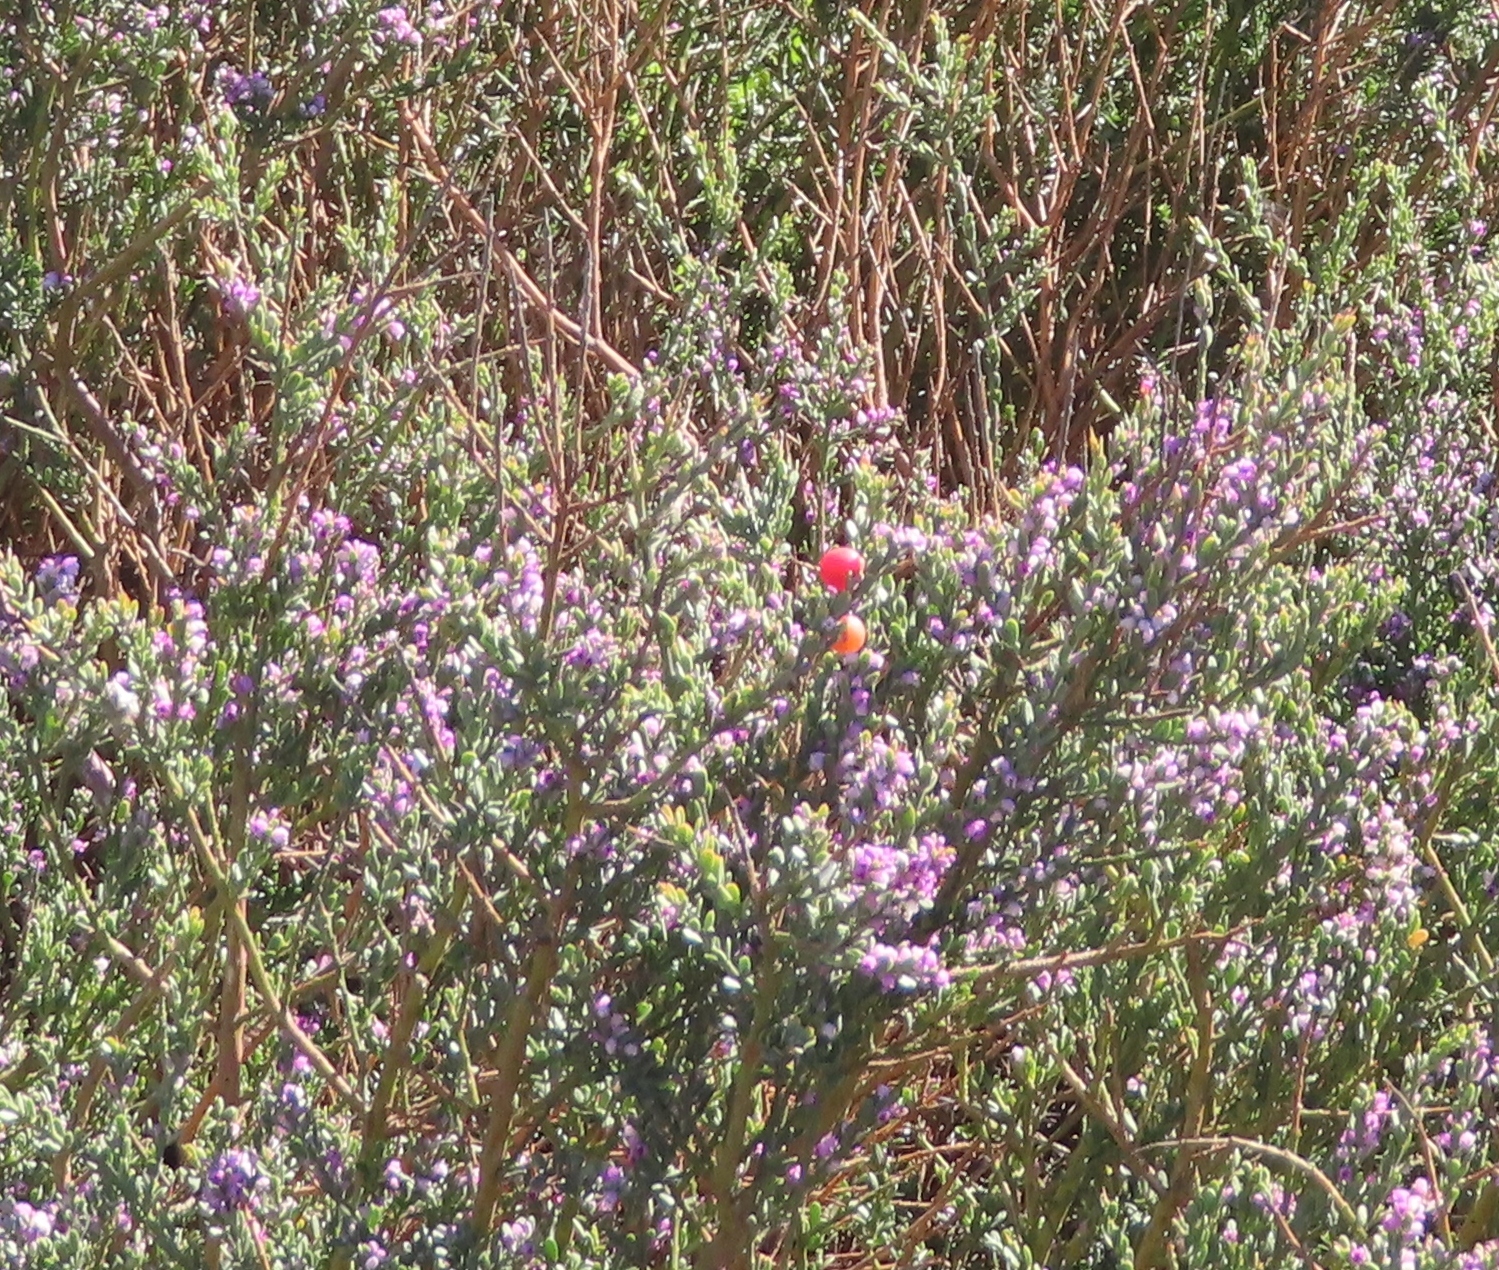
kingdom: Plantae
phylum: Tracheophyta
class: Magnoliopsida
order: Fabales
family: Polygalaceae
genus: Muraltia
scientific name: Muraltia spinosa
